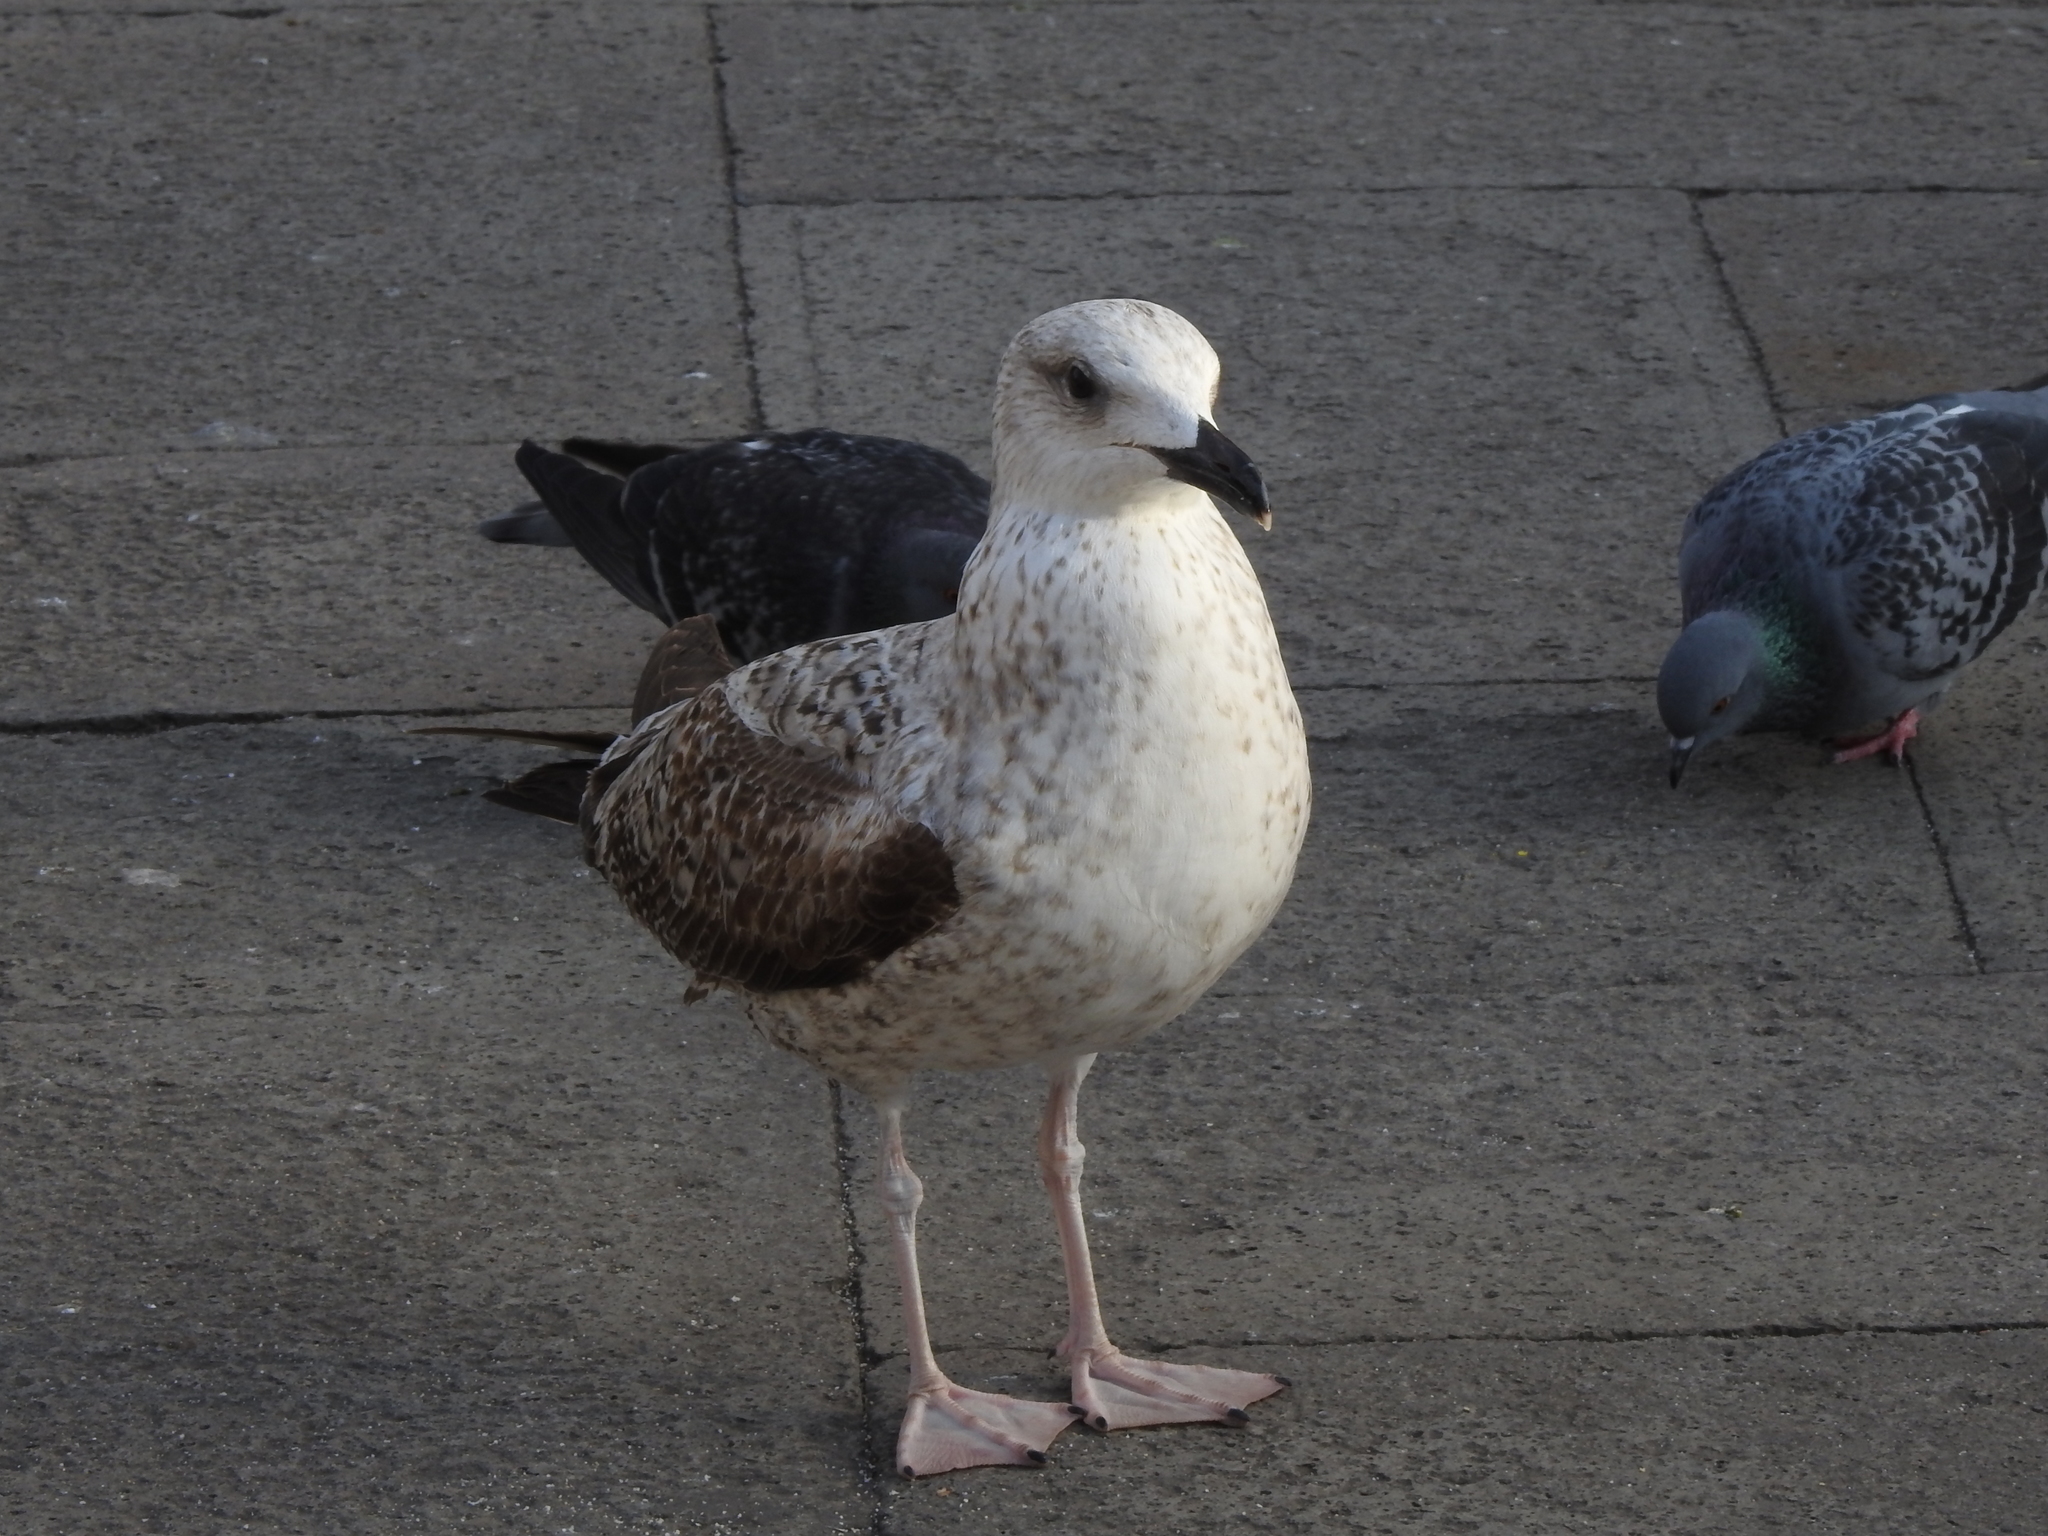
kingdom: Animalia
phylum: Chordata
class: Aves
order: Charadriiformes
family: Laridae
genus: Larus
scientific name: Larus michahellis
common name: Yellow-legged gull
